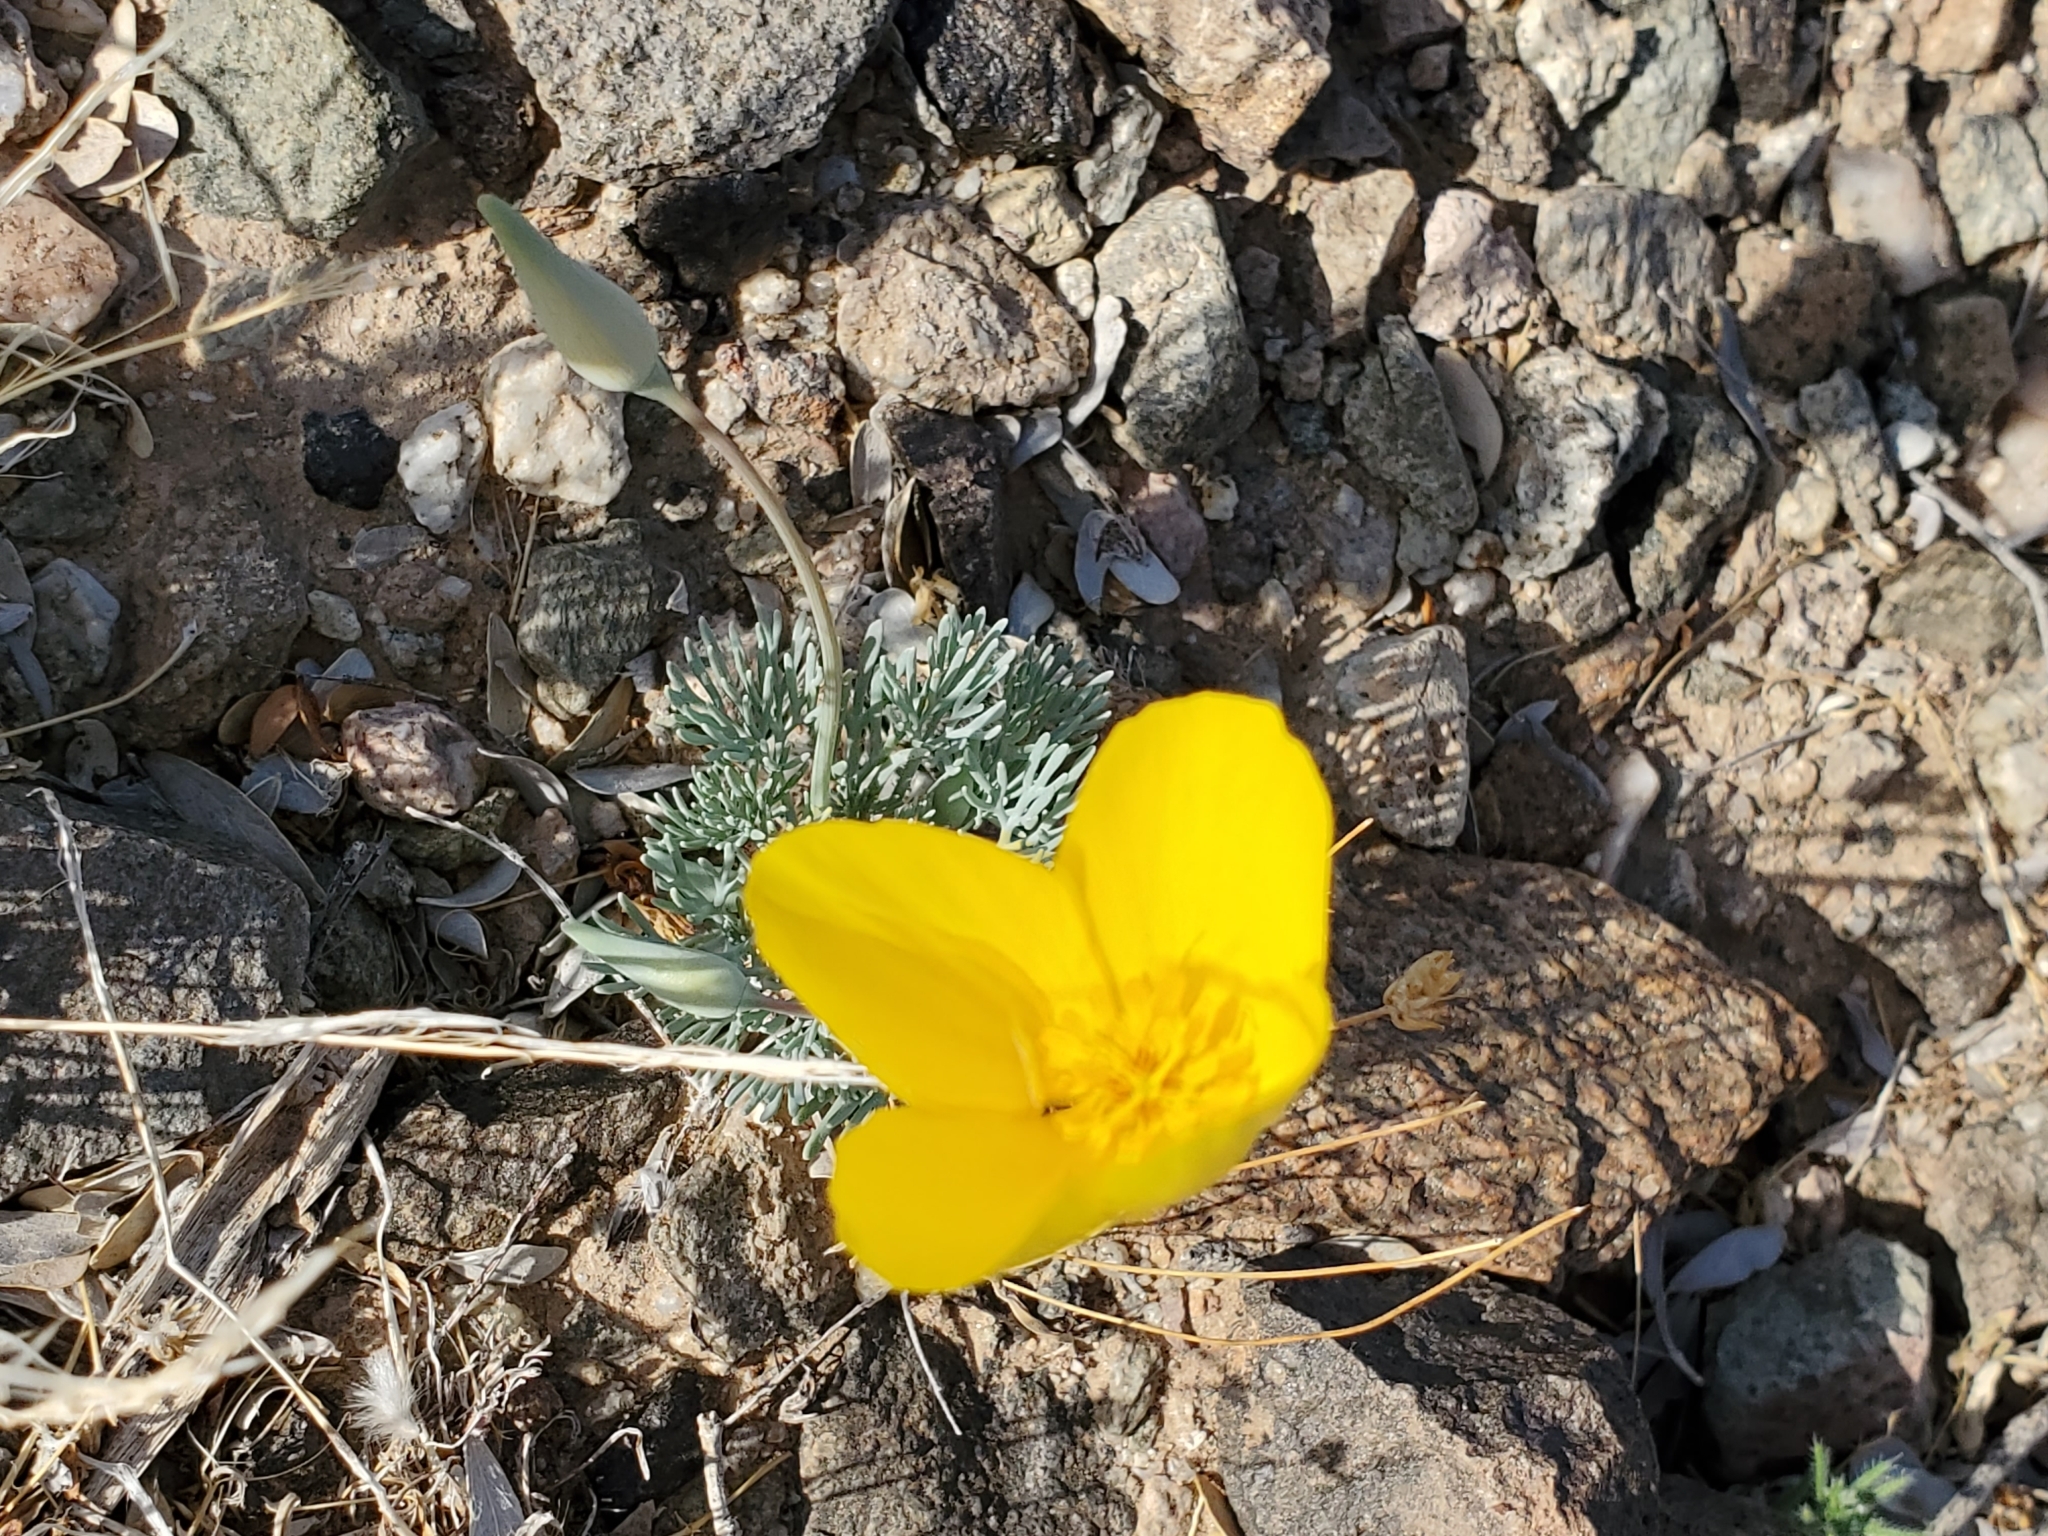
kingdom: Plantae
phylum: Tracheophyta
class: Magnoliopsida
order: Ranunculales
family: Papaveraceae
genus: Eschscholzia
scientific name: Eschscholzia glyptosperma
